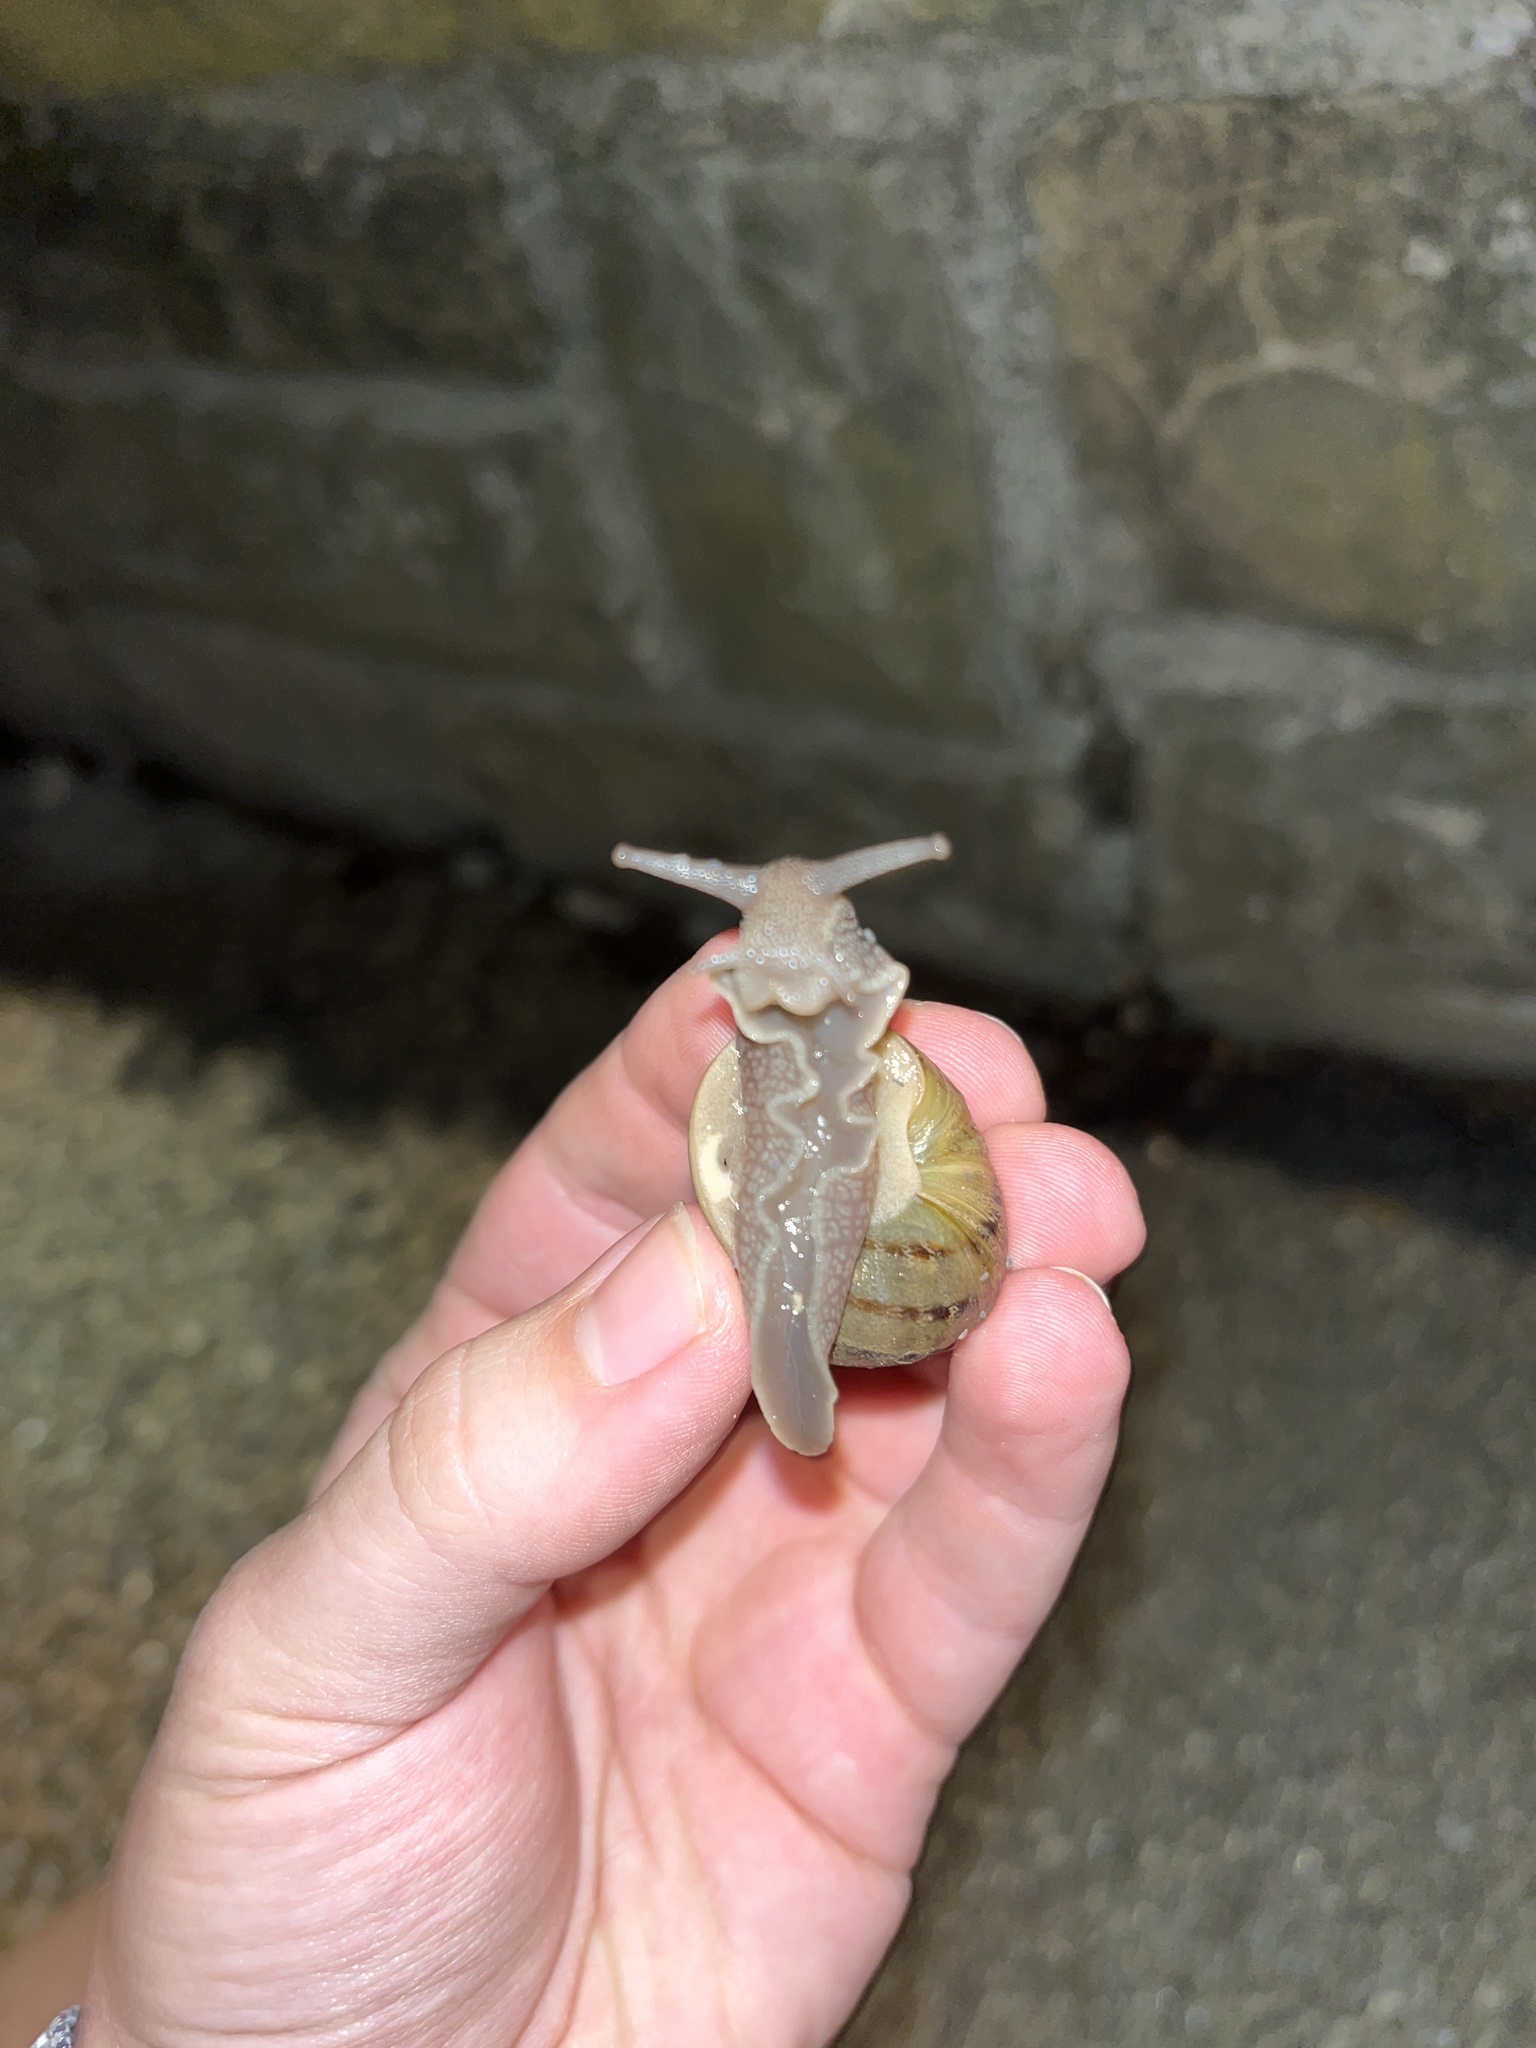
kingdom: Animalia
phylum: Mollusca
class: Gastropoda
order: Stylommatophora
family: Helicidae
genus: Cornu
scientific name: Cornu aspersum
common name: Brown garden snail
